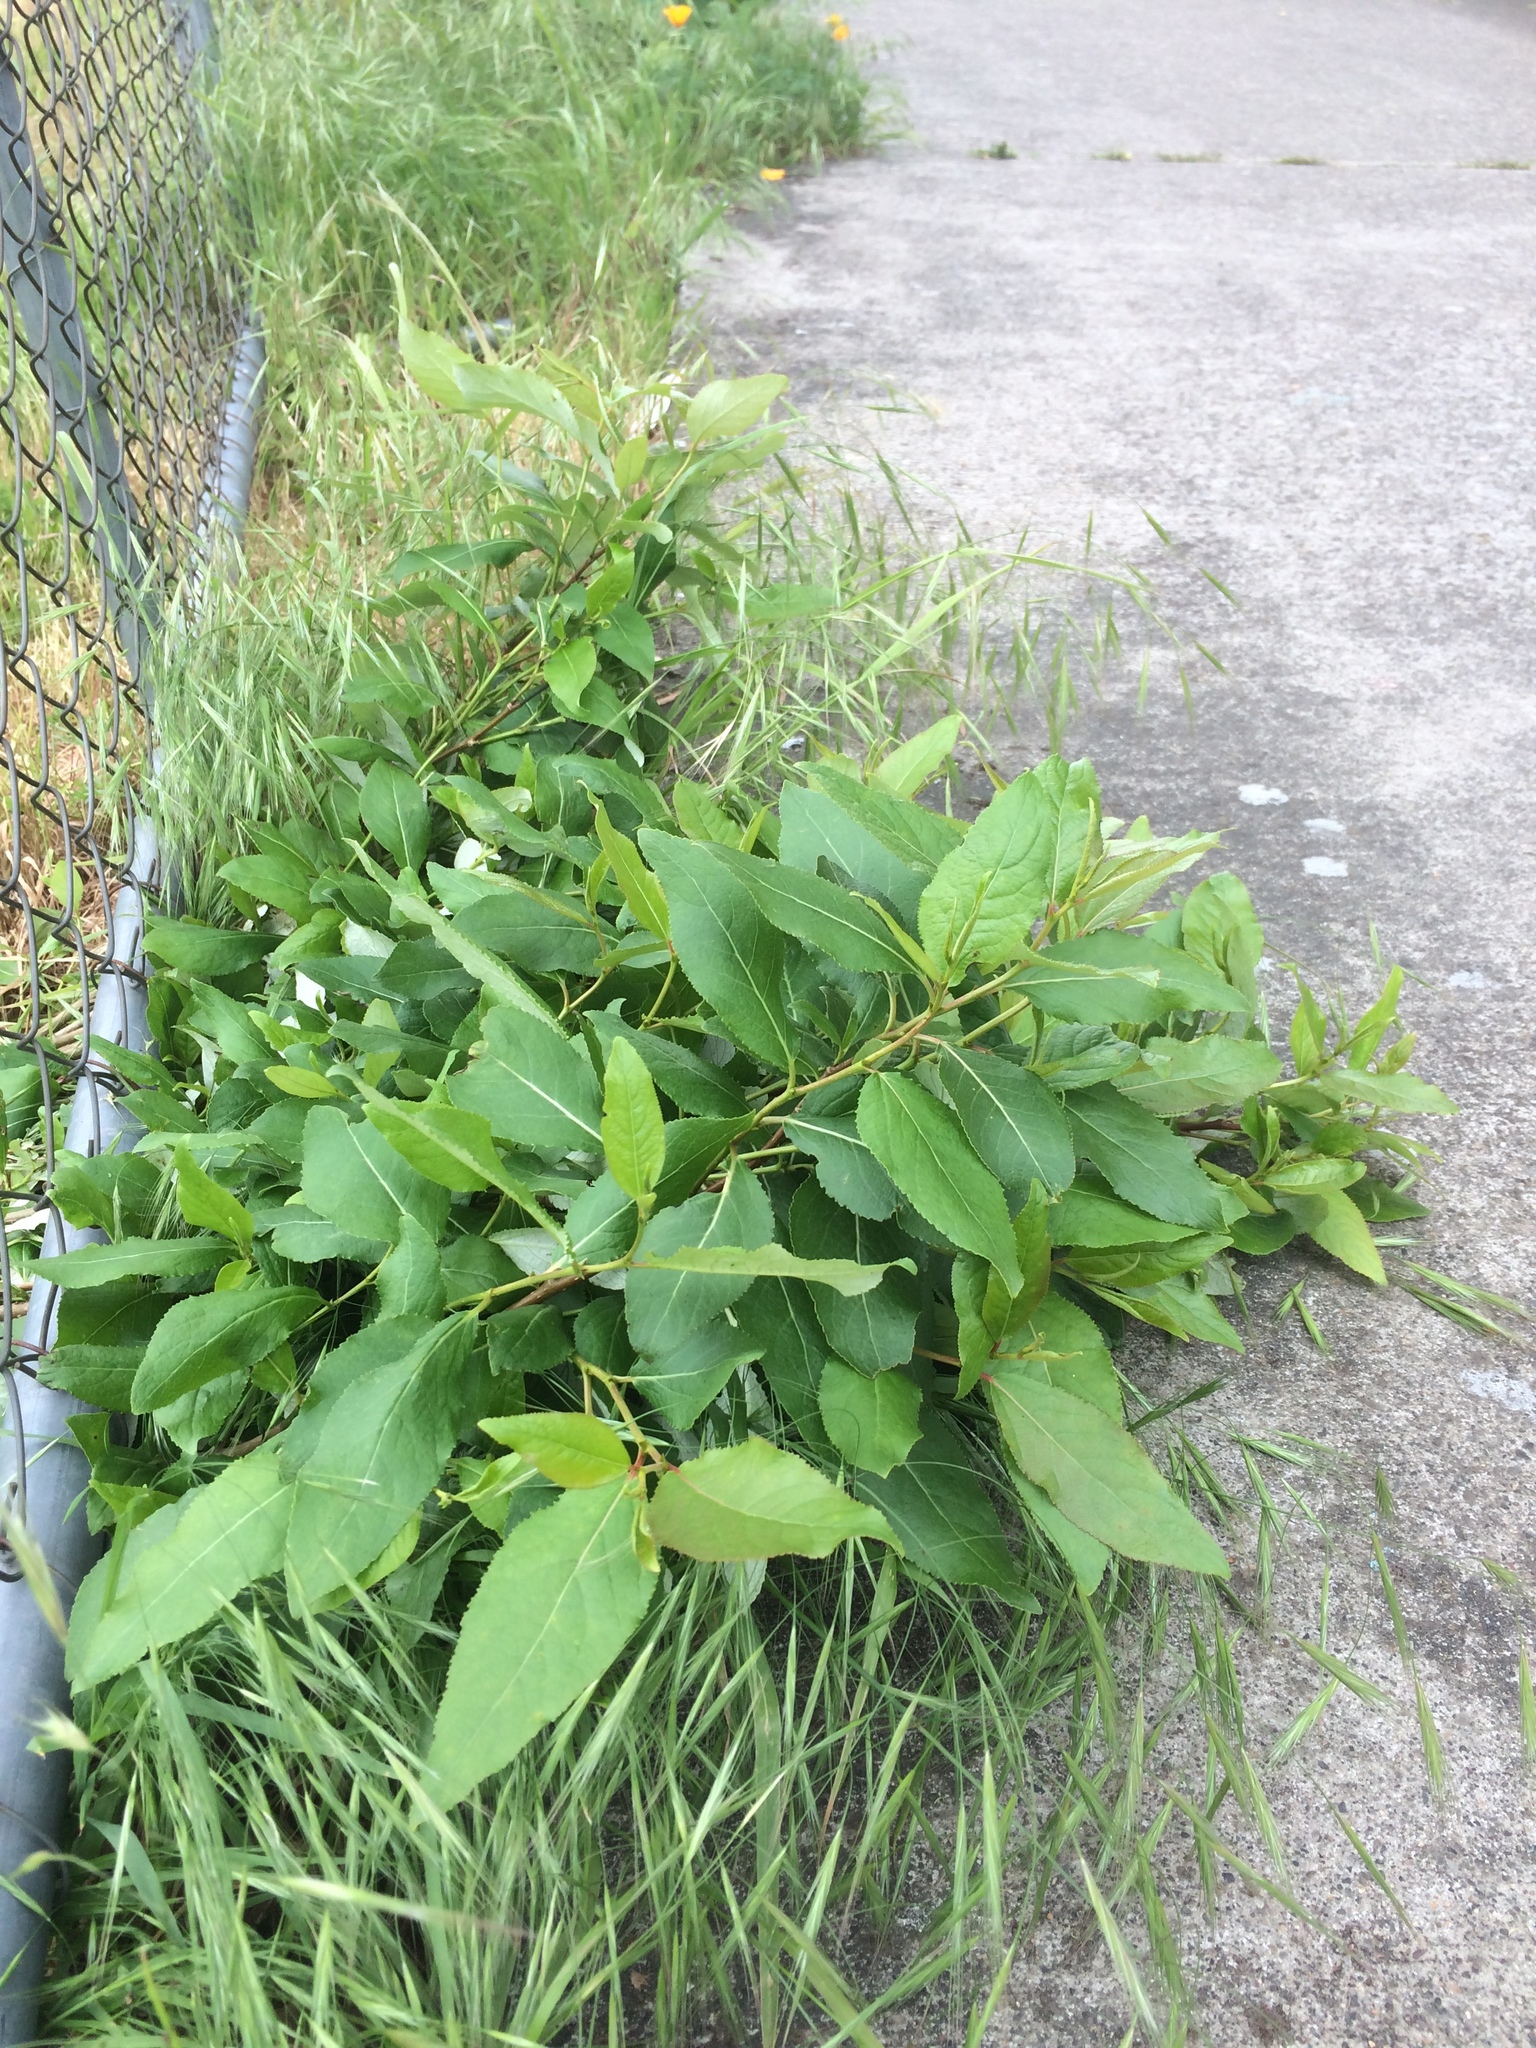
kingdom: Plantae
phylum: Tracheophyta
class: Magnoliopsida
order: Malpighiales
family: Salicaceae
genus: Populus
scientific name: Populus trichocarpa
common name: Black cottonwood
